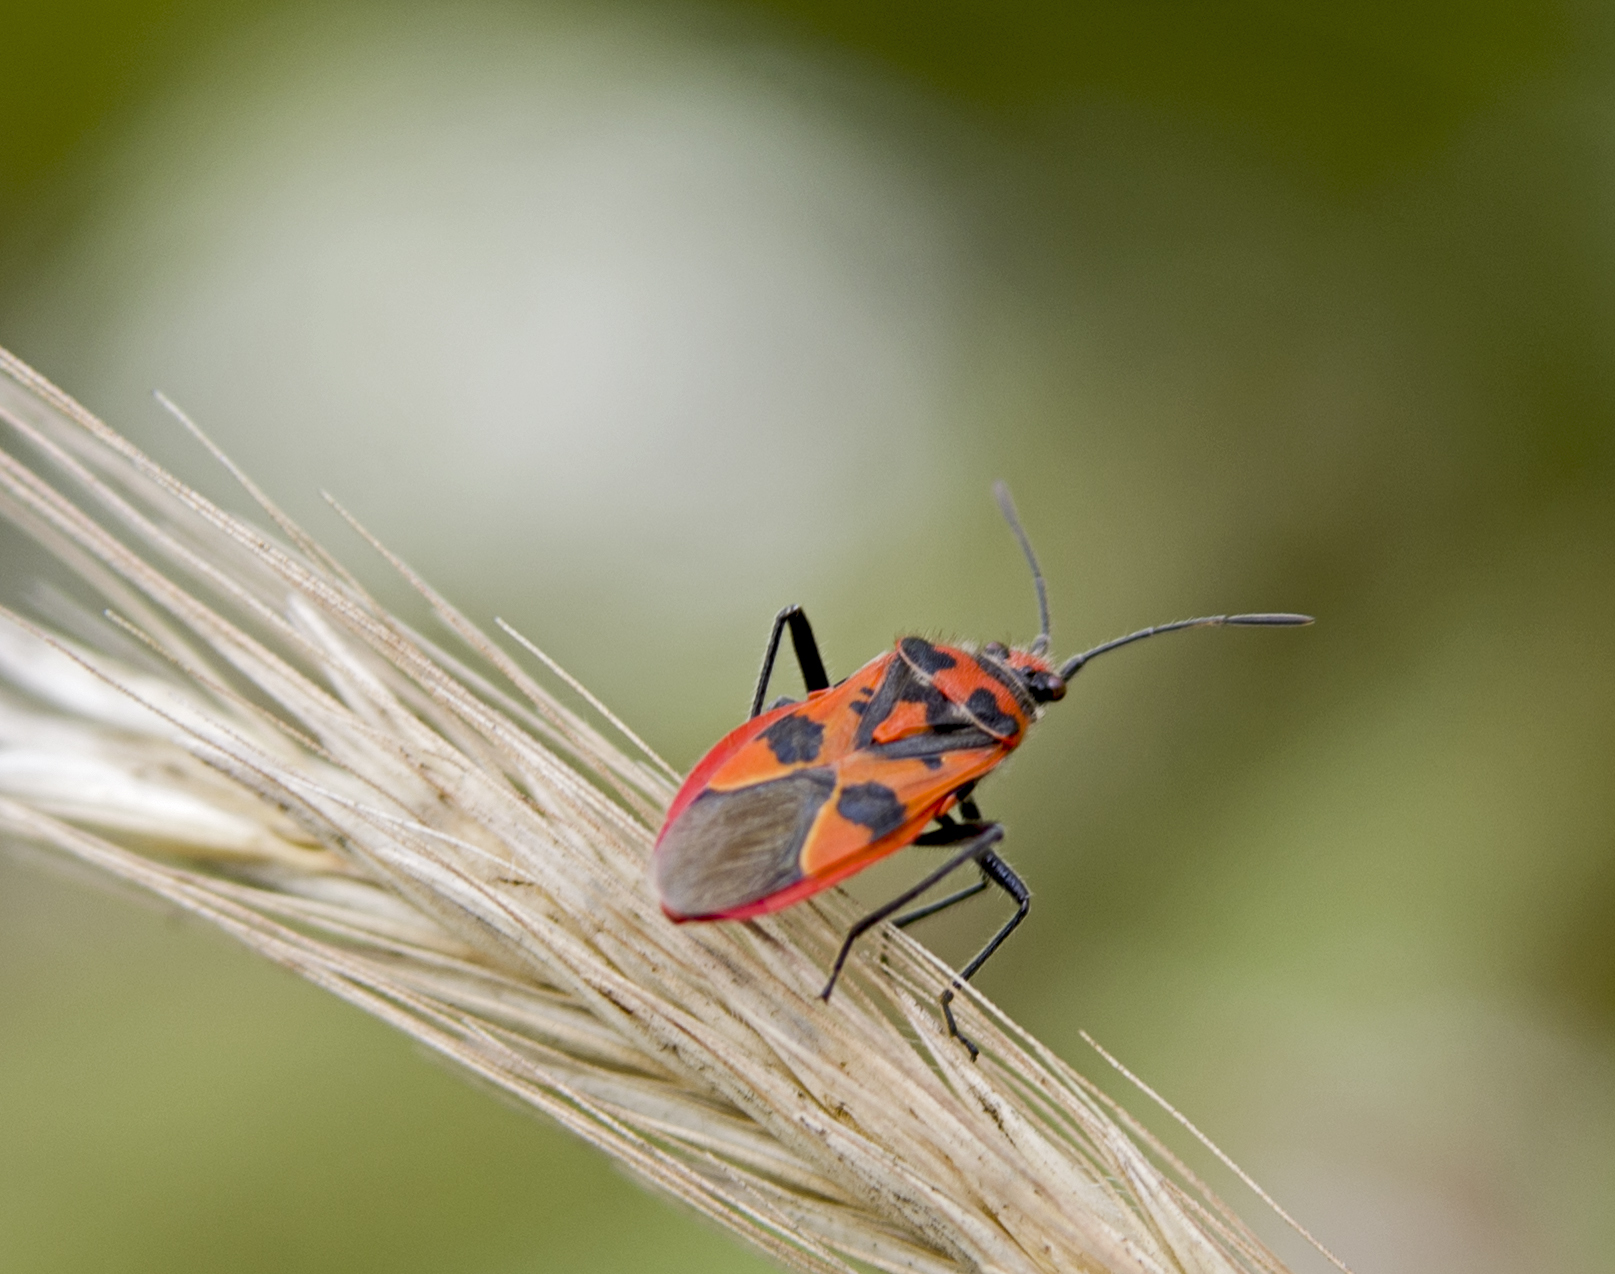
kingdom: Animalia
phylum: Arthropoda
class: Insecta
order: Hemiptera
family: Rhopalidae
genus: Corizus
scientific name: Corizus hyoscyami
